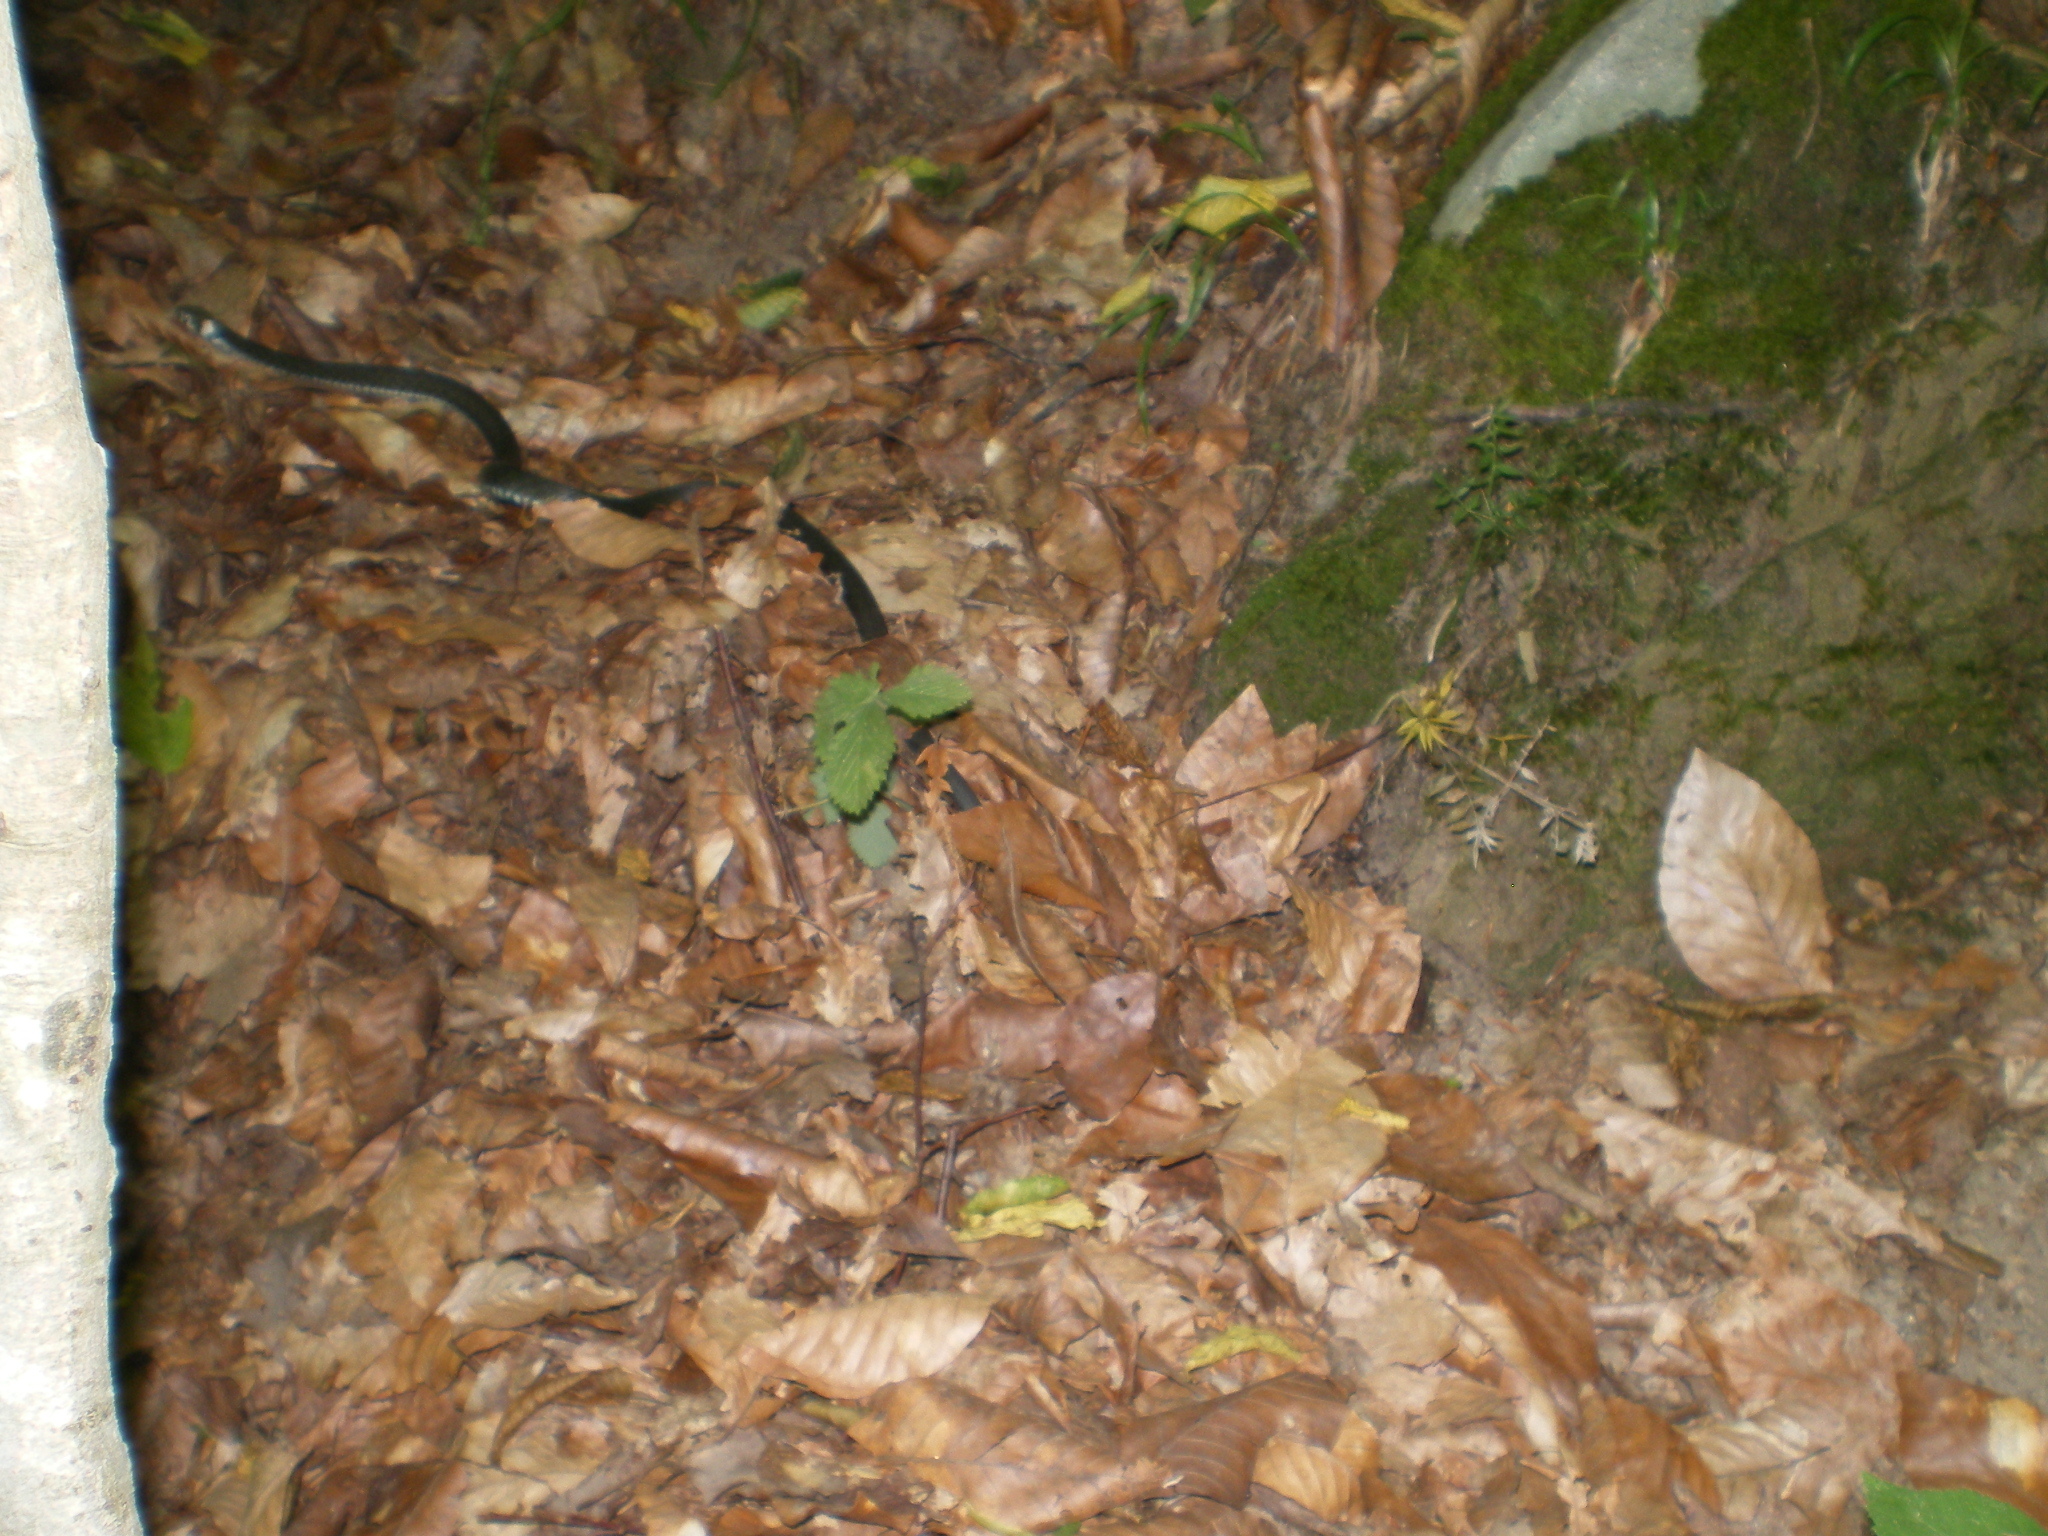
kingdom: Animalia
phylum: Chordata
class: Squamata
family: Colubridae
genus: Natrix
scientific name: Natrix natrix
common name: Grass snake
